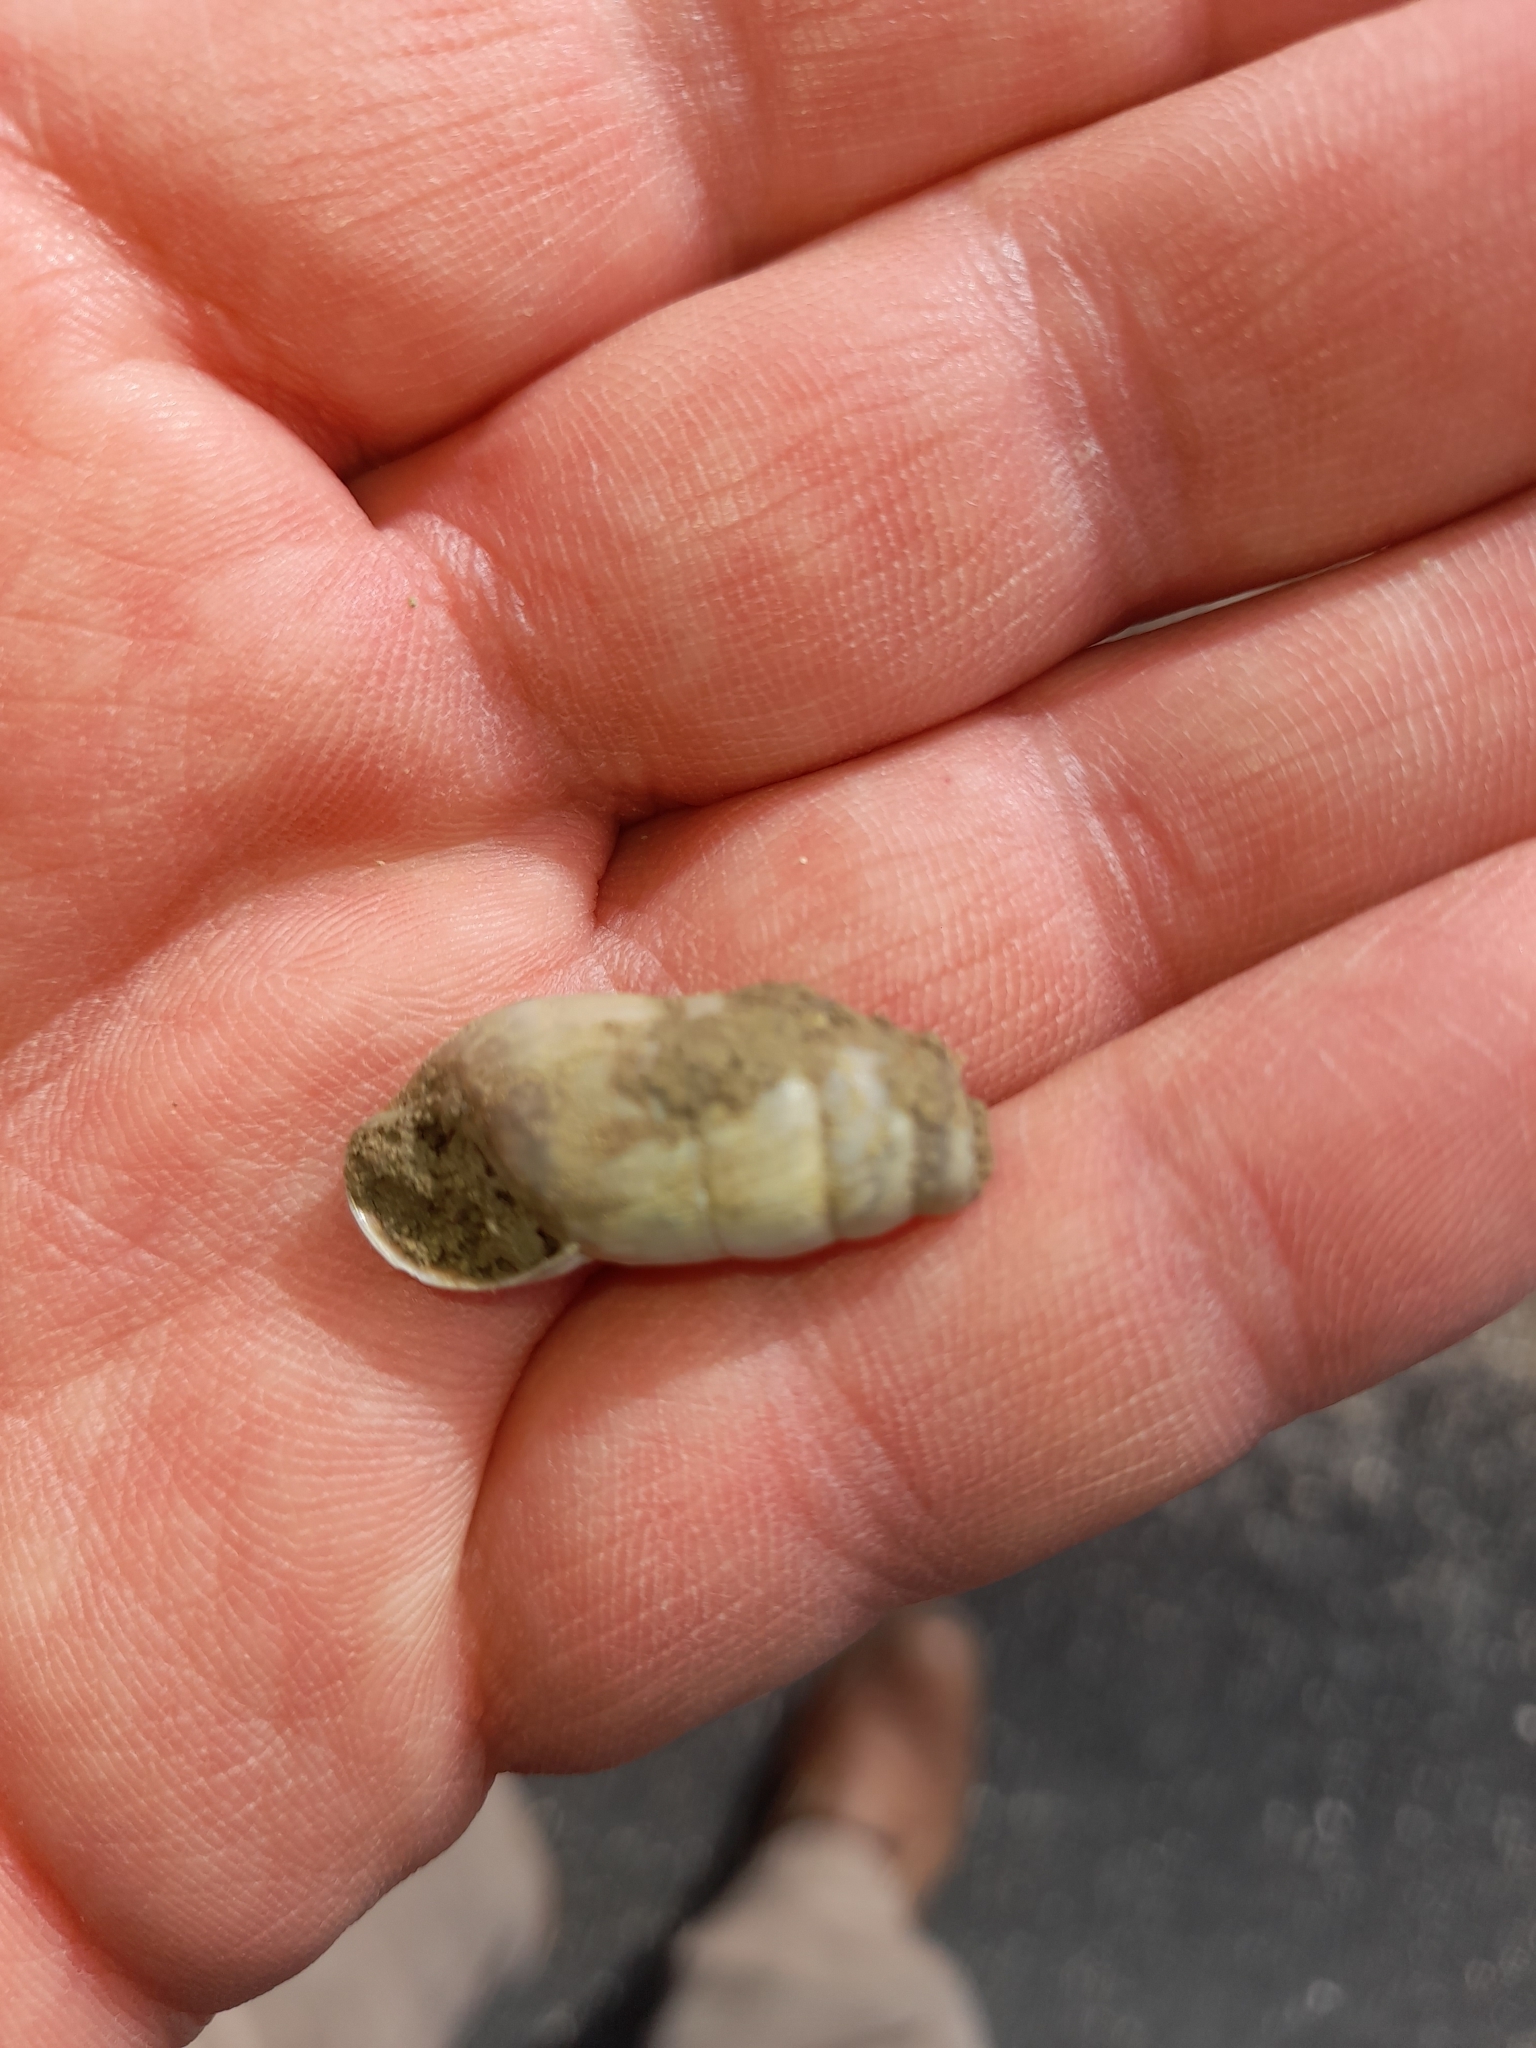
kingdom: Animalia
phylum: Mollusca
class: Gastropoda
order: Stylommatophora
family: Achatinidae
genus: Rumina
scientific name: Rumina decollata
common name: Decollate snail
